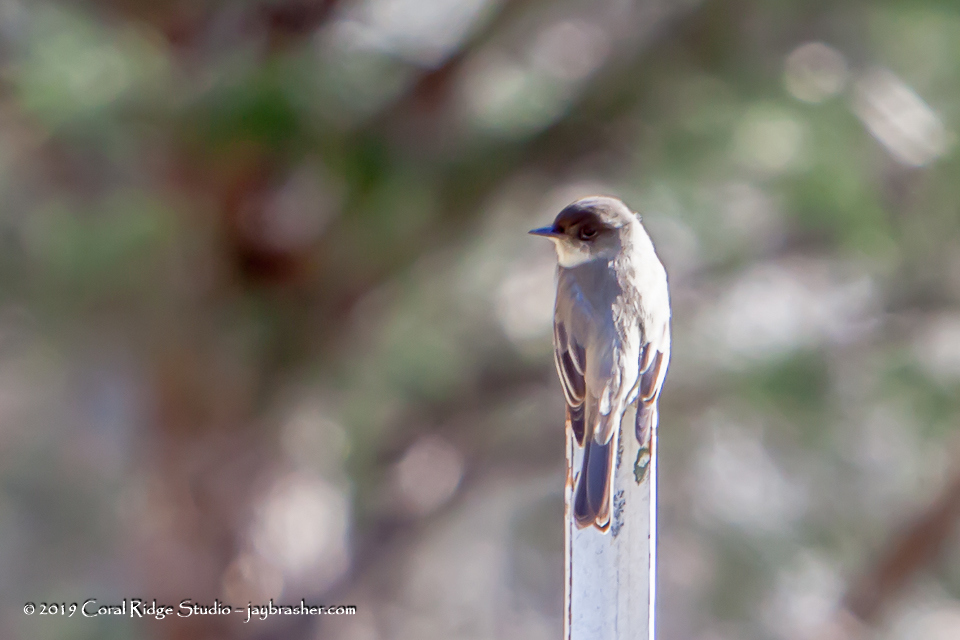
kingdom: Animalia
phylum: Chordata
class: Aves
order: Passeriformes
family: Tyrannidae
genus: Sayornis
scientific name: Sayornis phoebe
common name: Eastern phoebe
